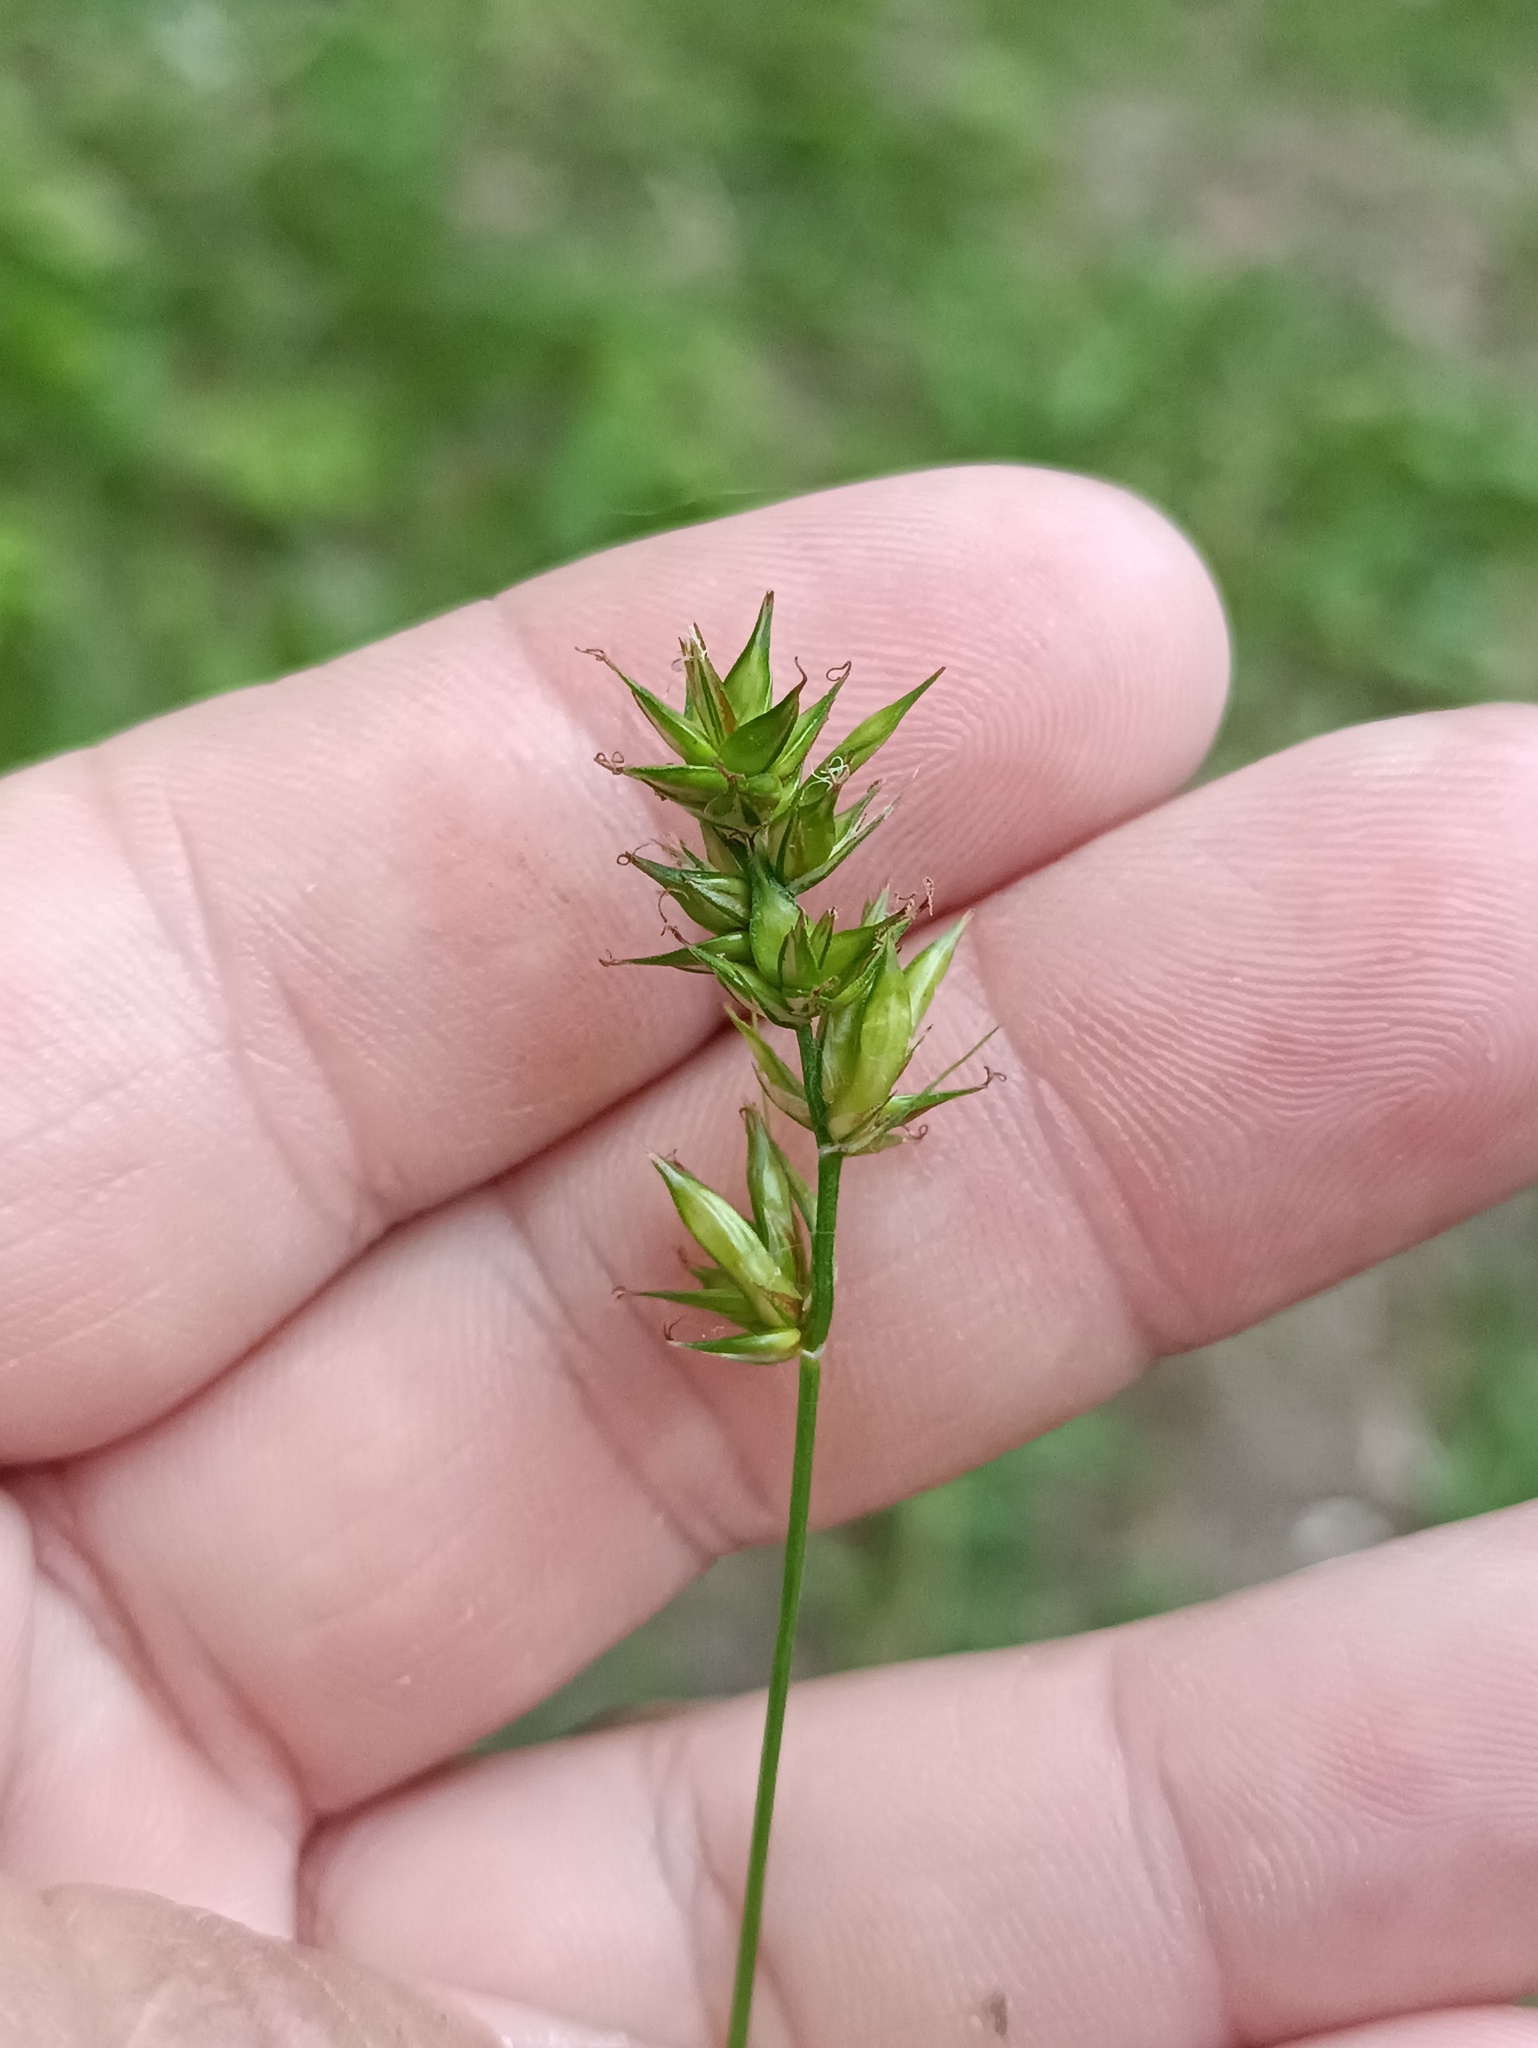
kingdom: Plantae
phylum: Tracheophyta
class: Liliopsida
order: Poales
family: Cyperaceae
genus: Carex
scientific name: Carex spicata
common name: Spiked sedge
